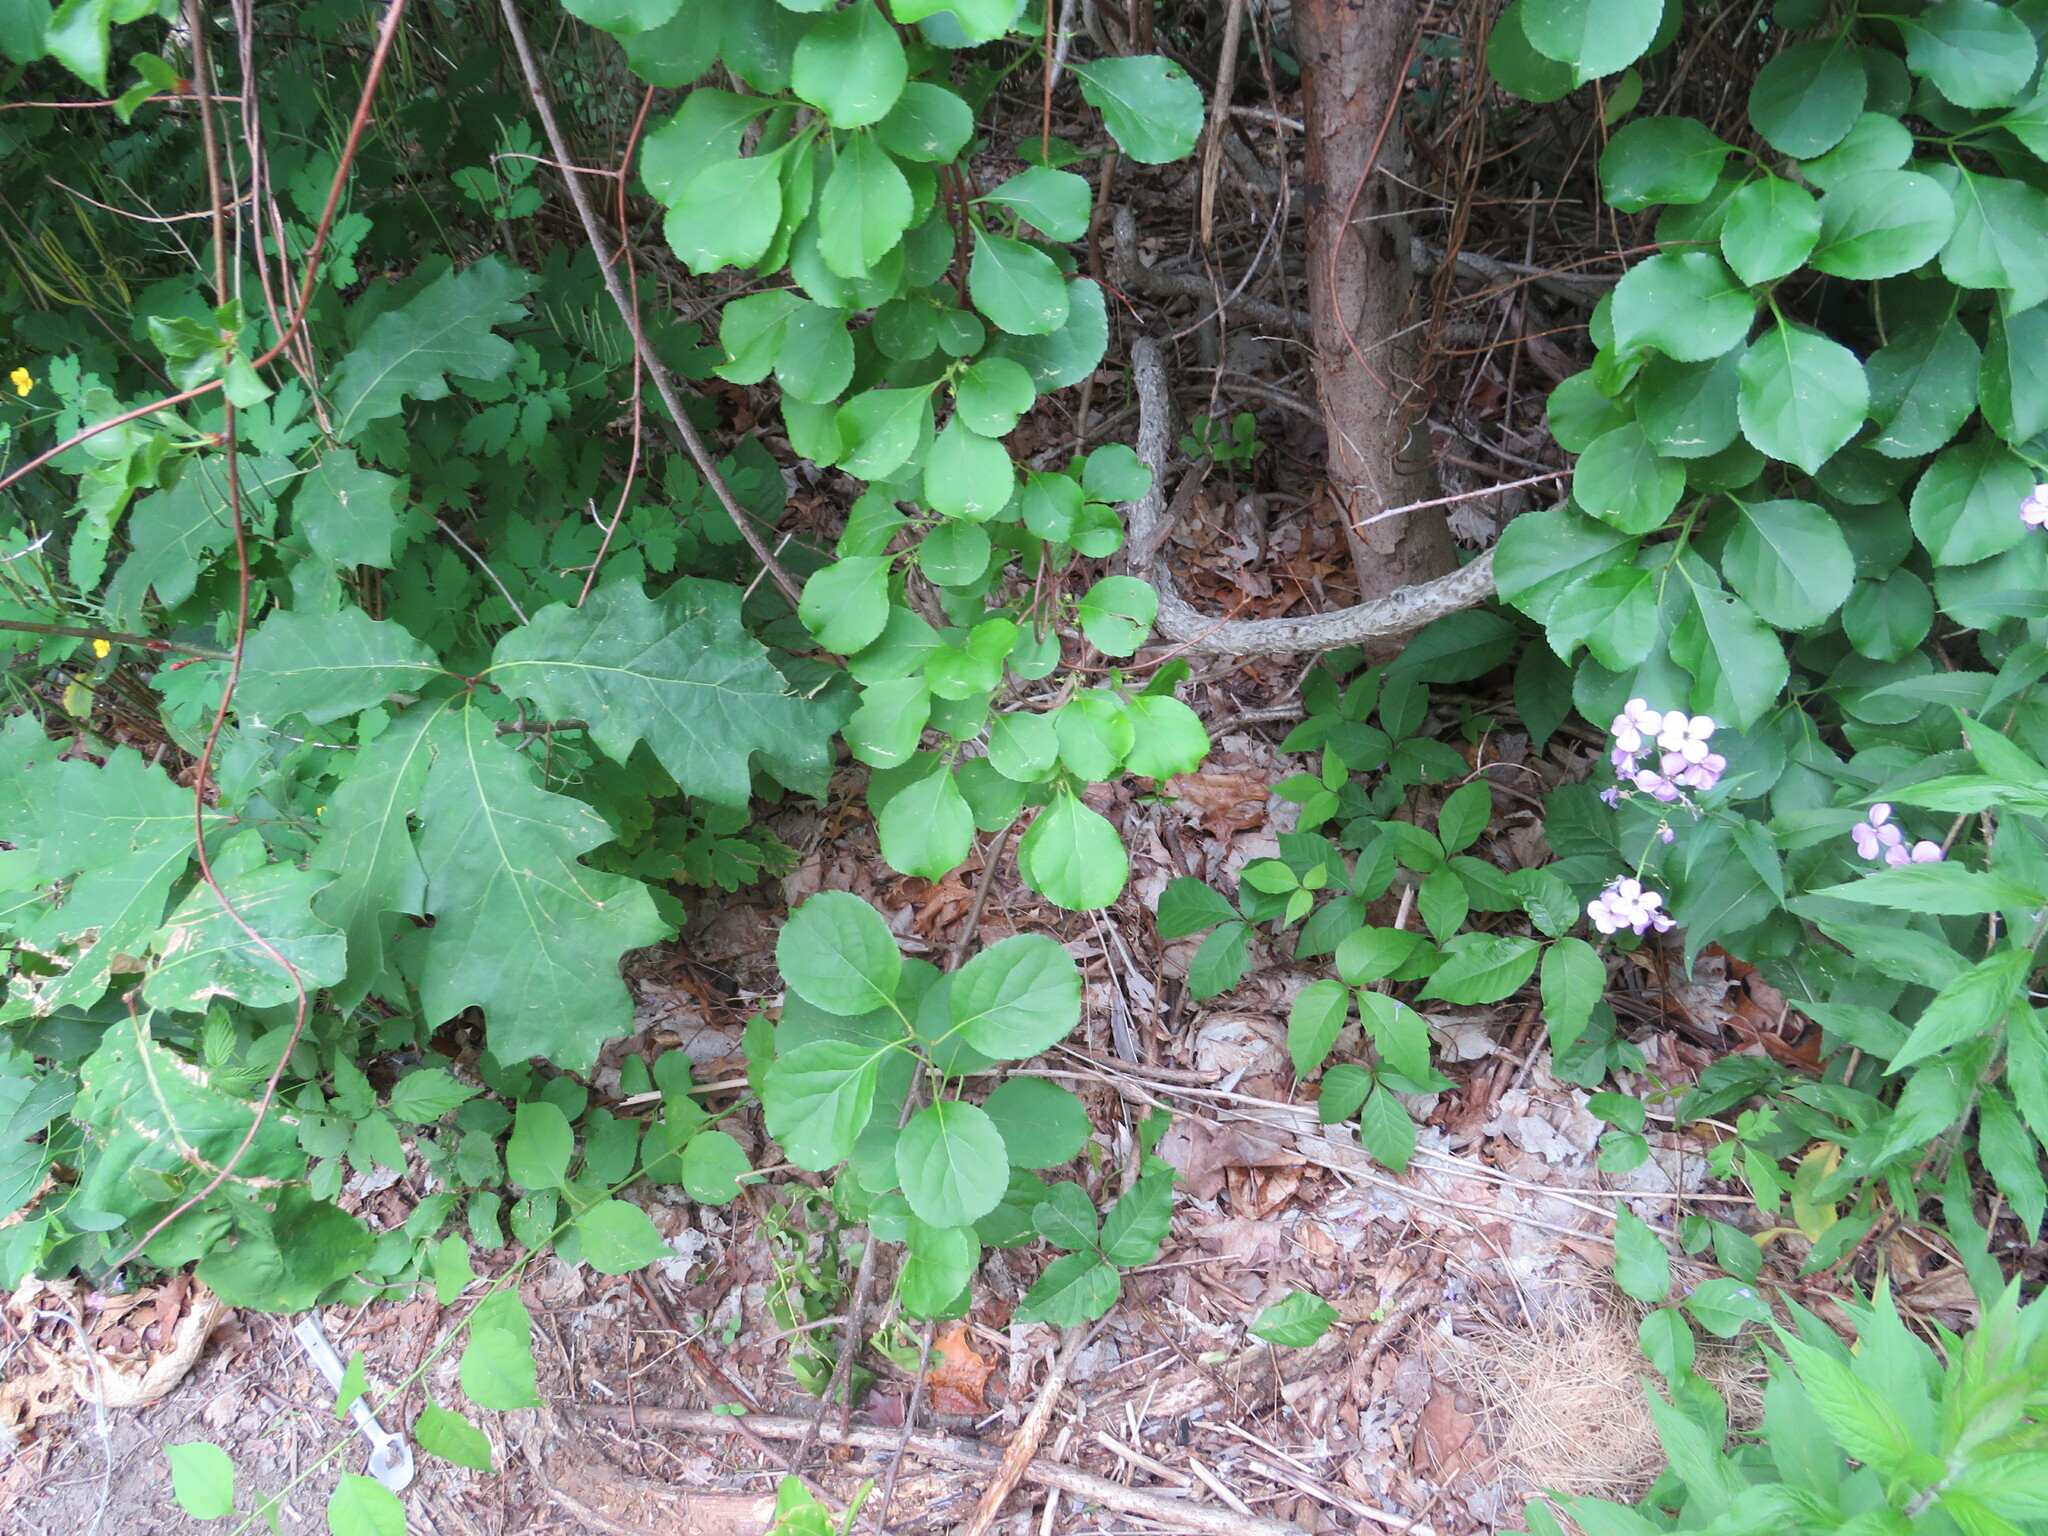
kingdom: Plantae
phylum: Tracheophyta
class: Magnoliopsida
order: Celastrales
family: Celastraceae
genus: Celastrus
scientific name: Celastrus orbiculatus
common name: Oriental bittersweet
